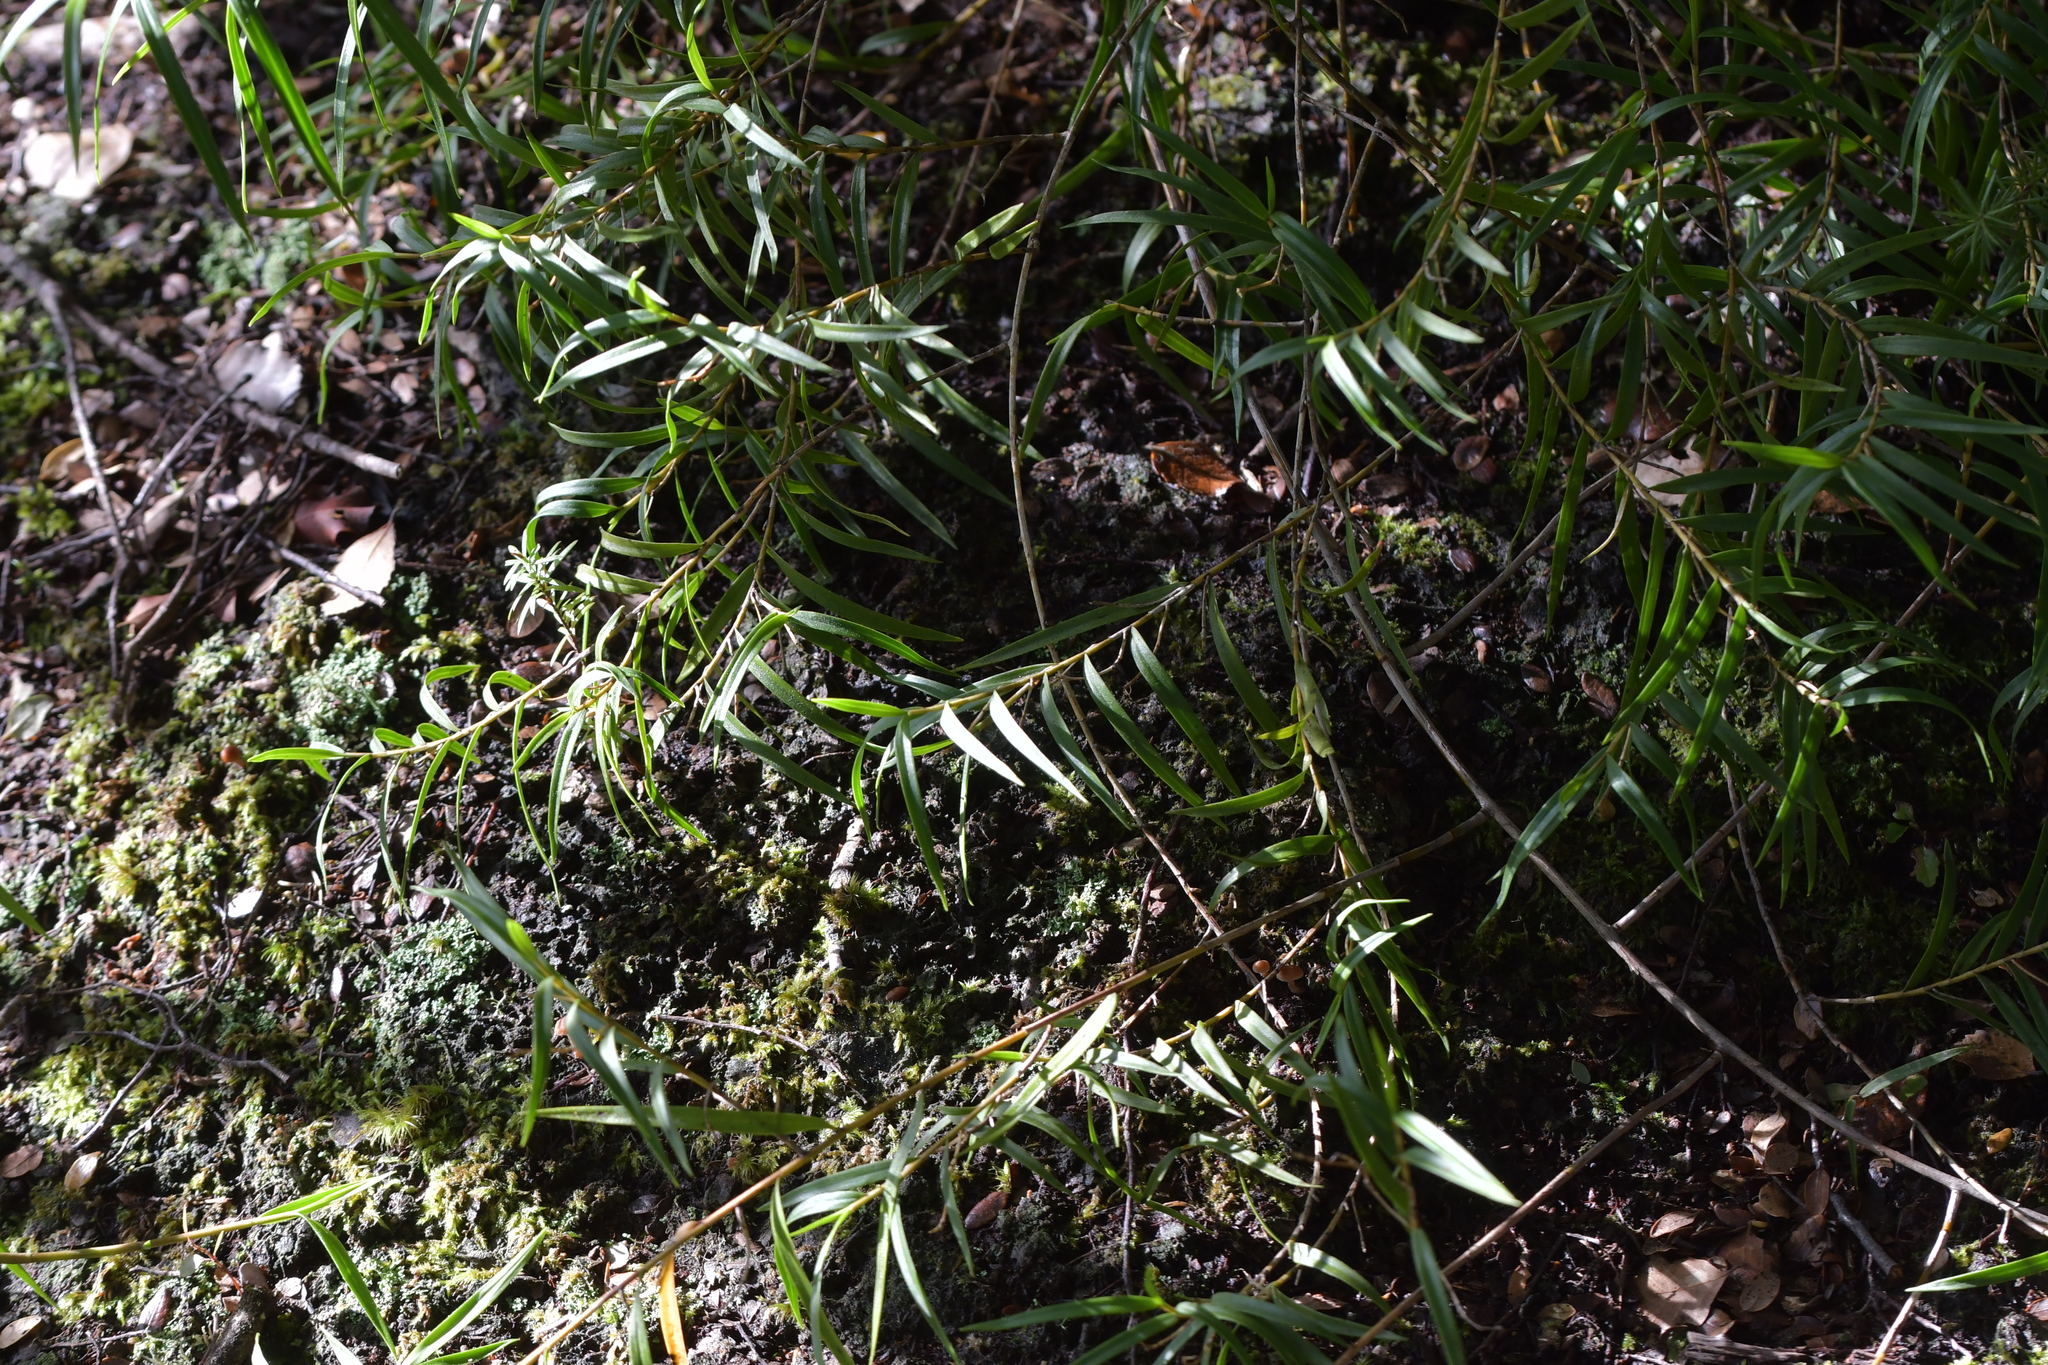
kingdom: Plantae
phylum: Tracheophyta
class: Liliopsida
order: Asparagales
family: Orchidaceae
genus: Dendrobium
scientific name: Dendrobium cunninghamii
